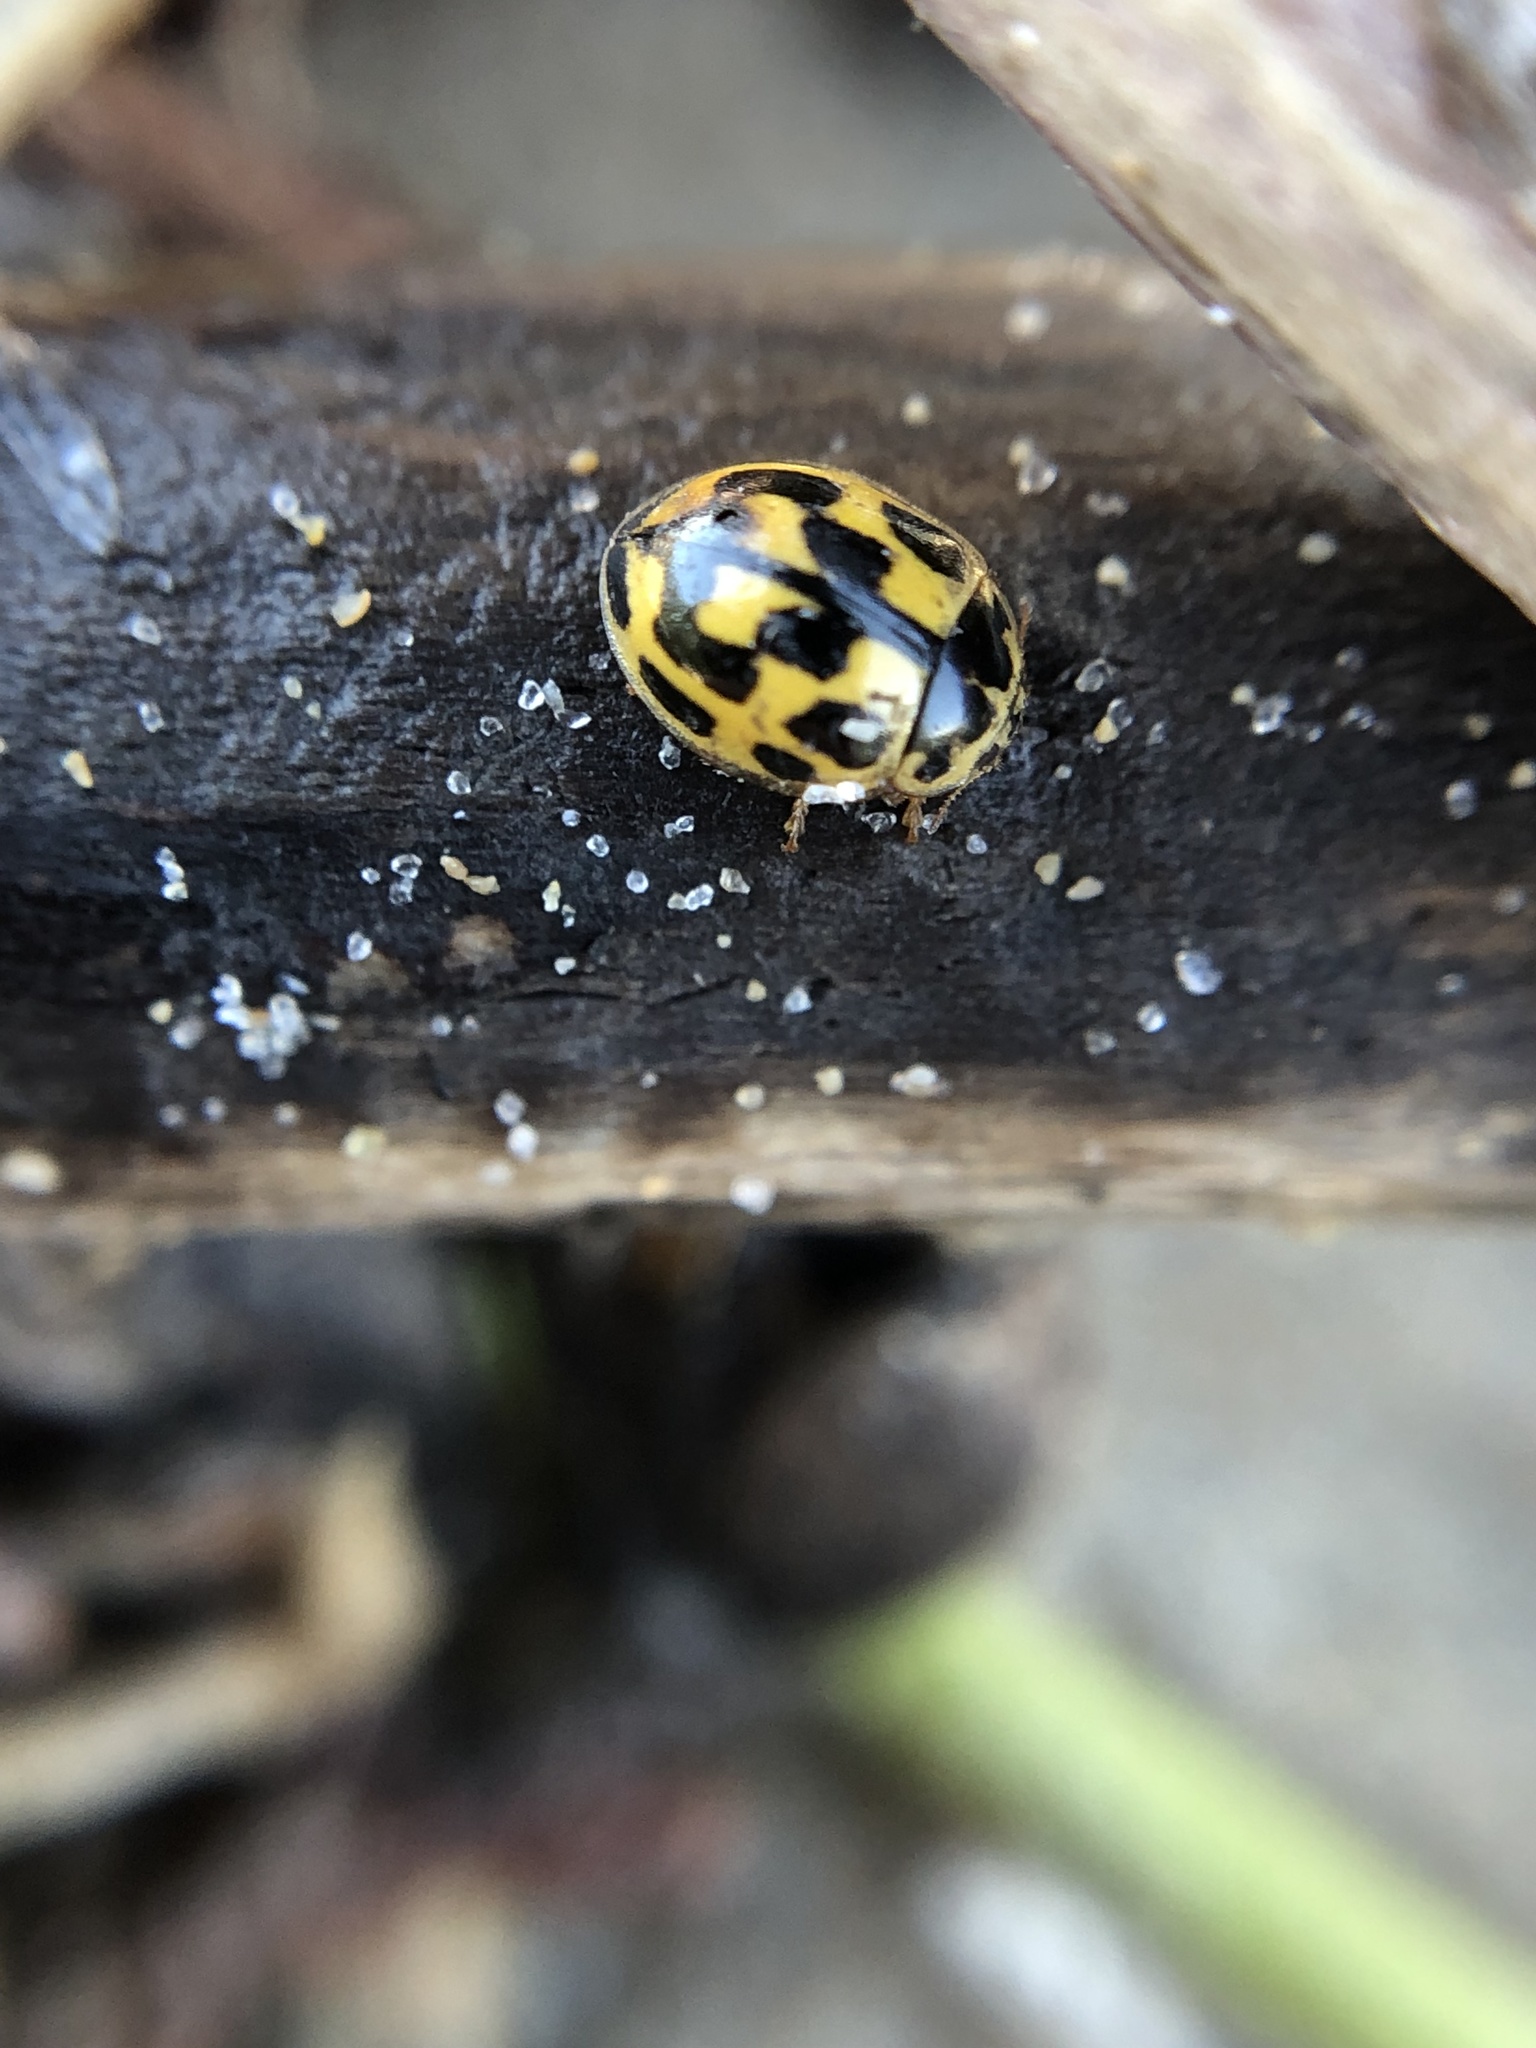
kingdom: Animalia
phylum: Arthropoda
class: Insecta
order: Coleoptera
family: Coccinellidae
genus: Propylaea
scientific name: Propylaea quatuordecimpunctata
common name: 14-spotted ladybird beetle
